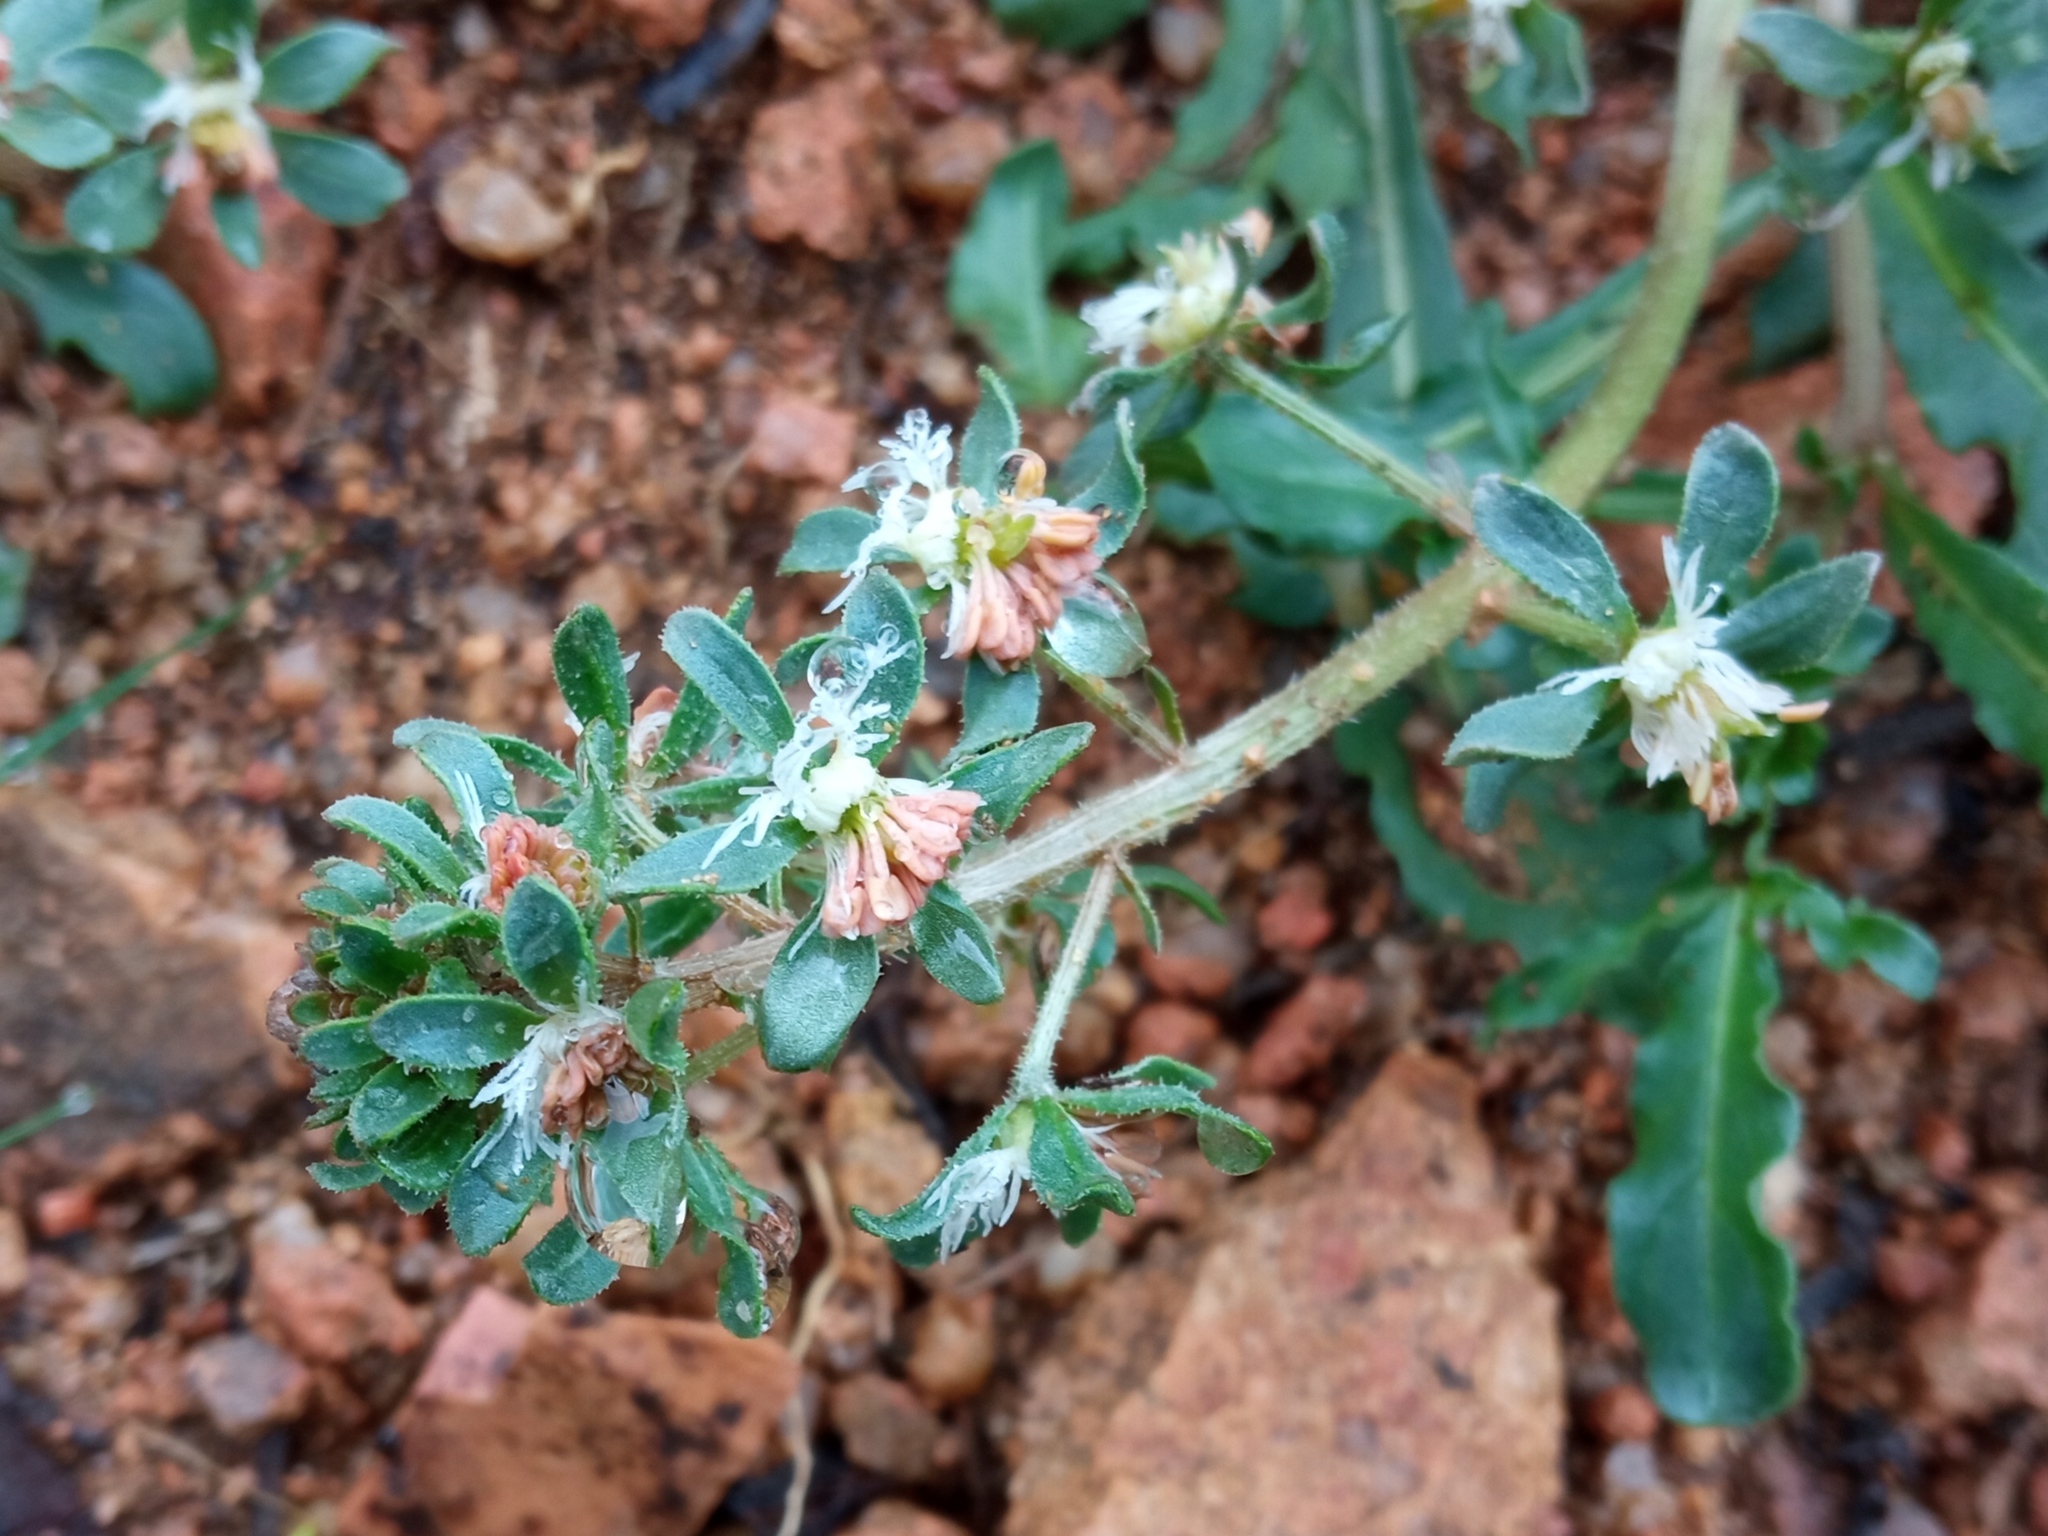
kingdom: Plantae
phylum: Tracheophyta
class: Magnoliopsida
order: Brassicales
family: Resedaceae
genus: Reseda
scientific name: Reseda phyteuma
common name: Corn mignonette
